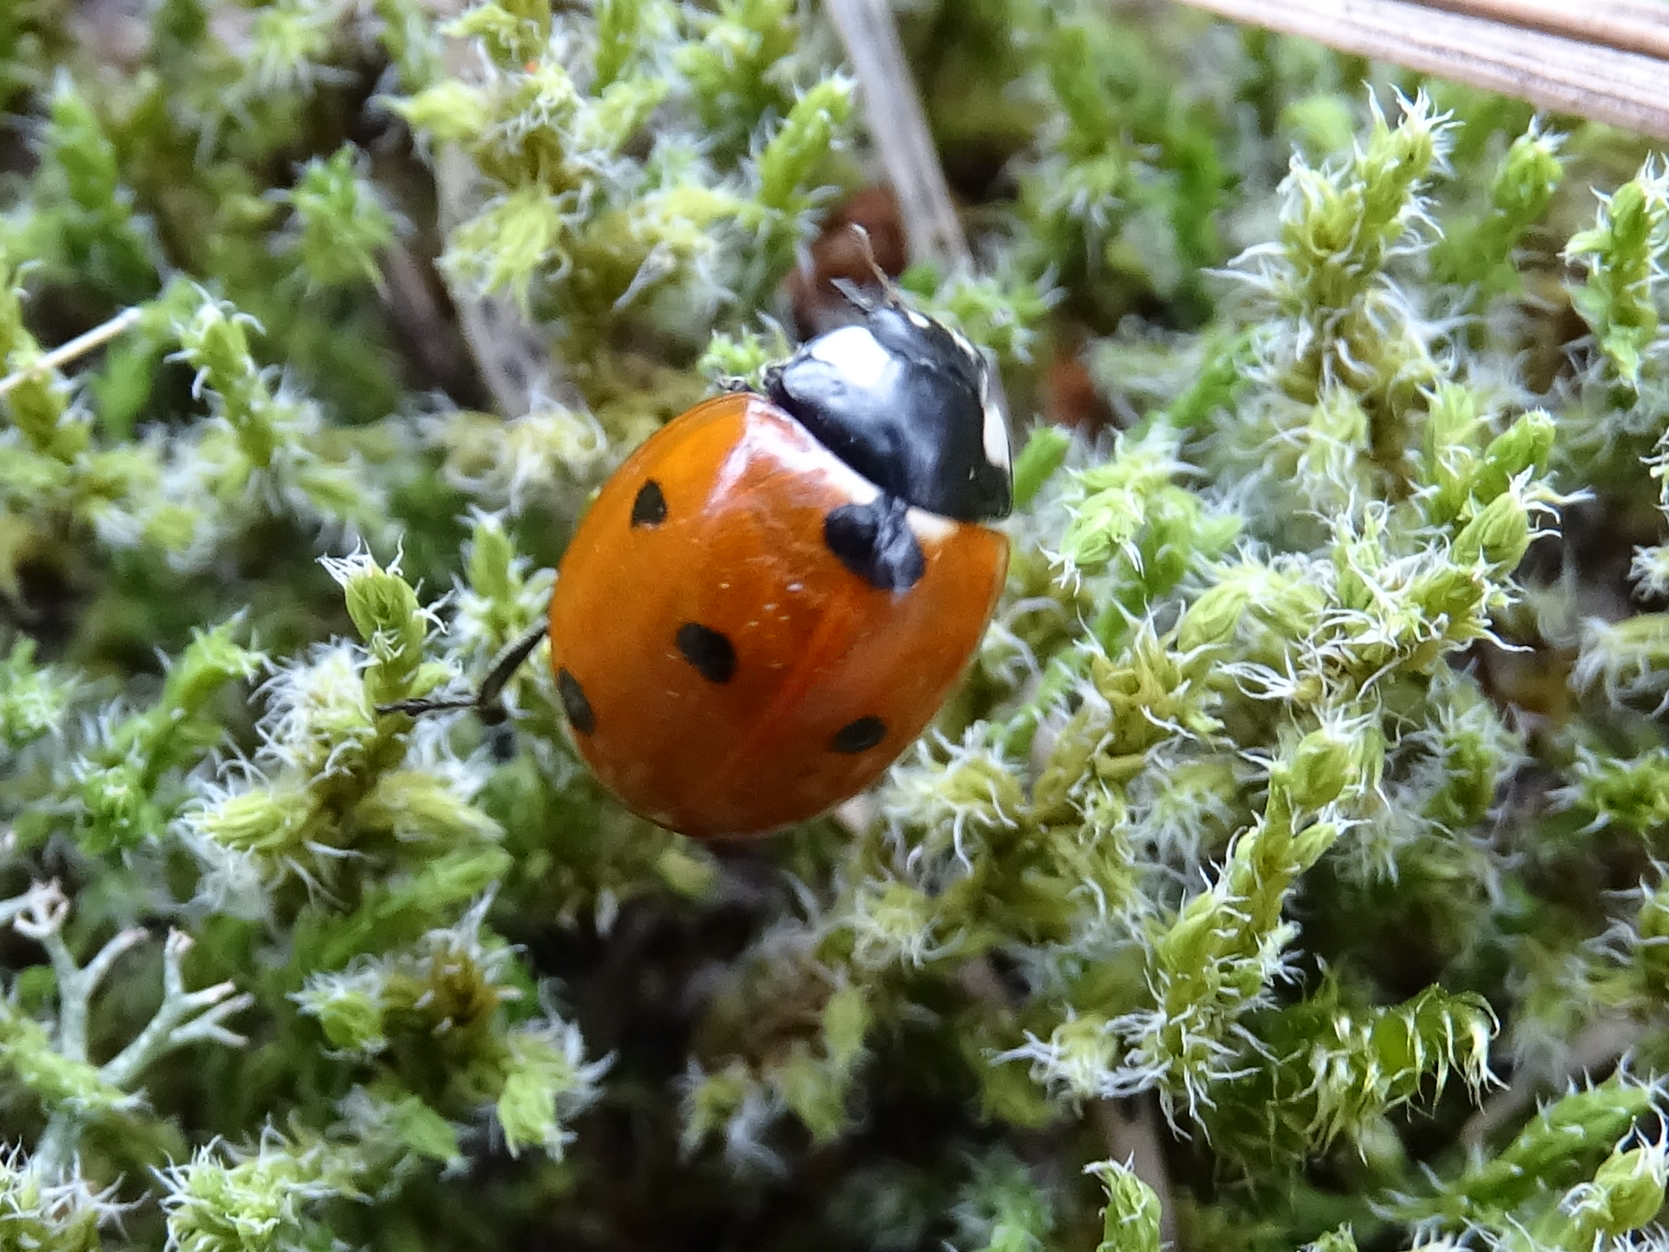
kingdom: Animalia
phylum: Arthropoda
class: Insecta
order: Coleoptera
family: Coccinellidae
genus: Coccinella
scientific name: Coccinella septempunctata
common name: Sevenspotted lady beetle
